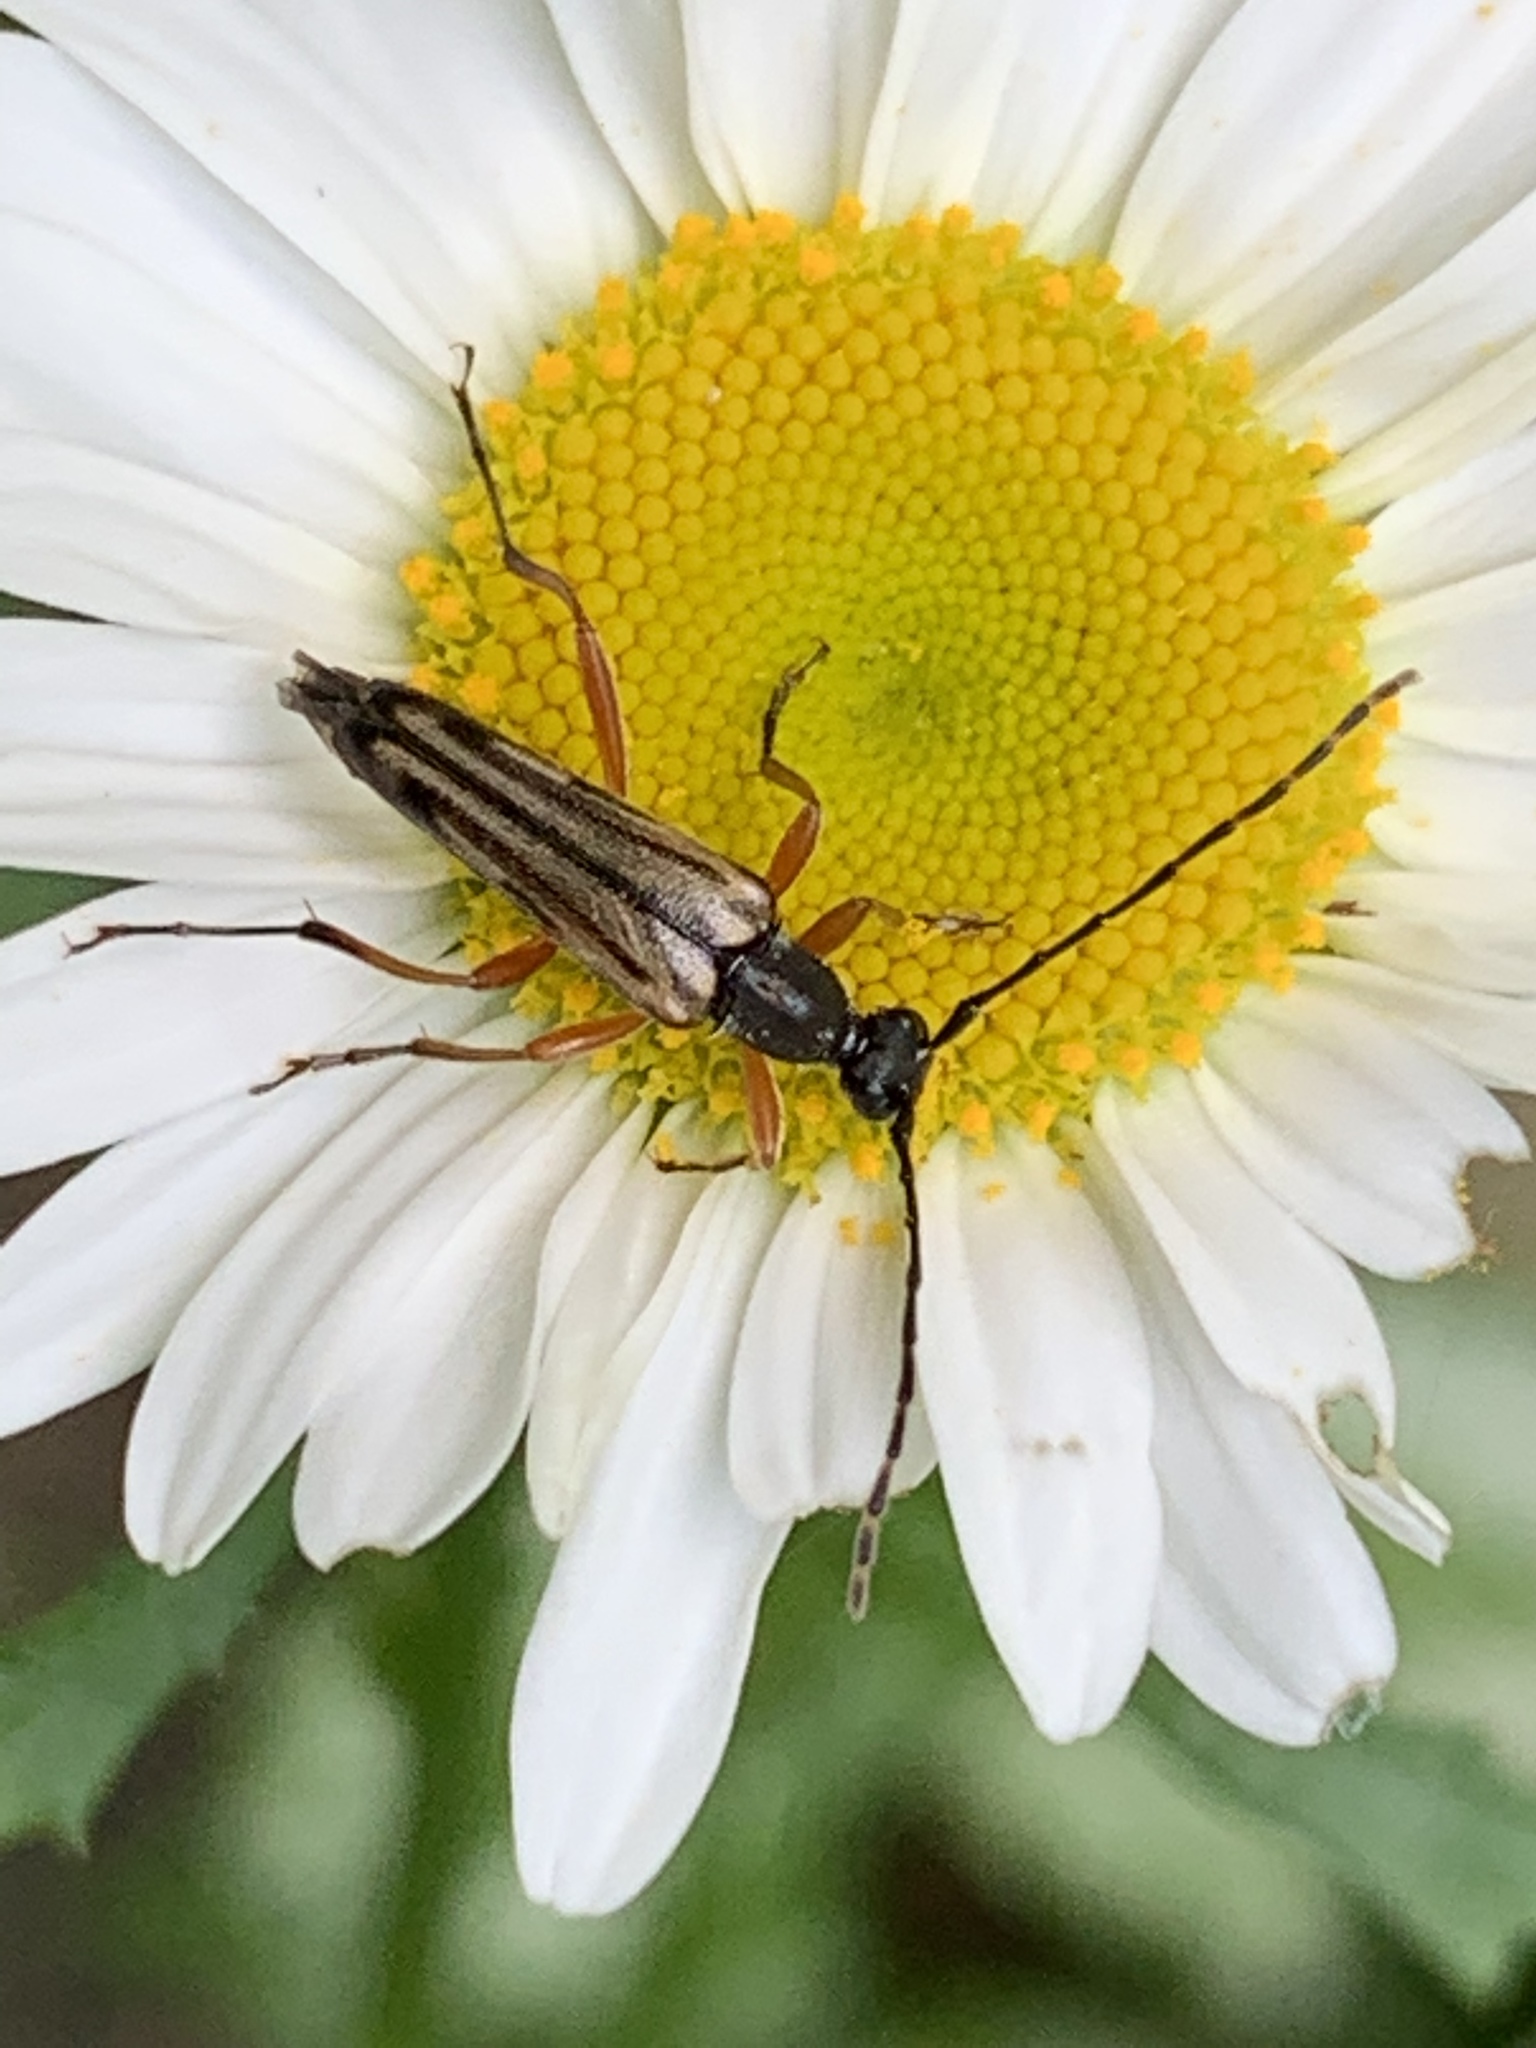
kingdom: Animalia
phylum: Arthropoda
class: Insecta
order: Coleoptera
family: Cerambycidae
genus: Analeptura
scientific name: Analeptura lineola
